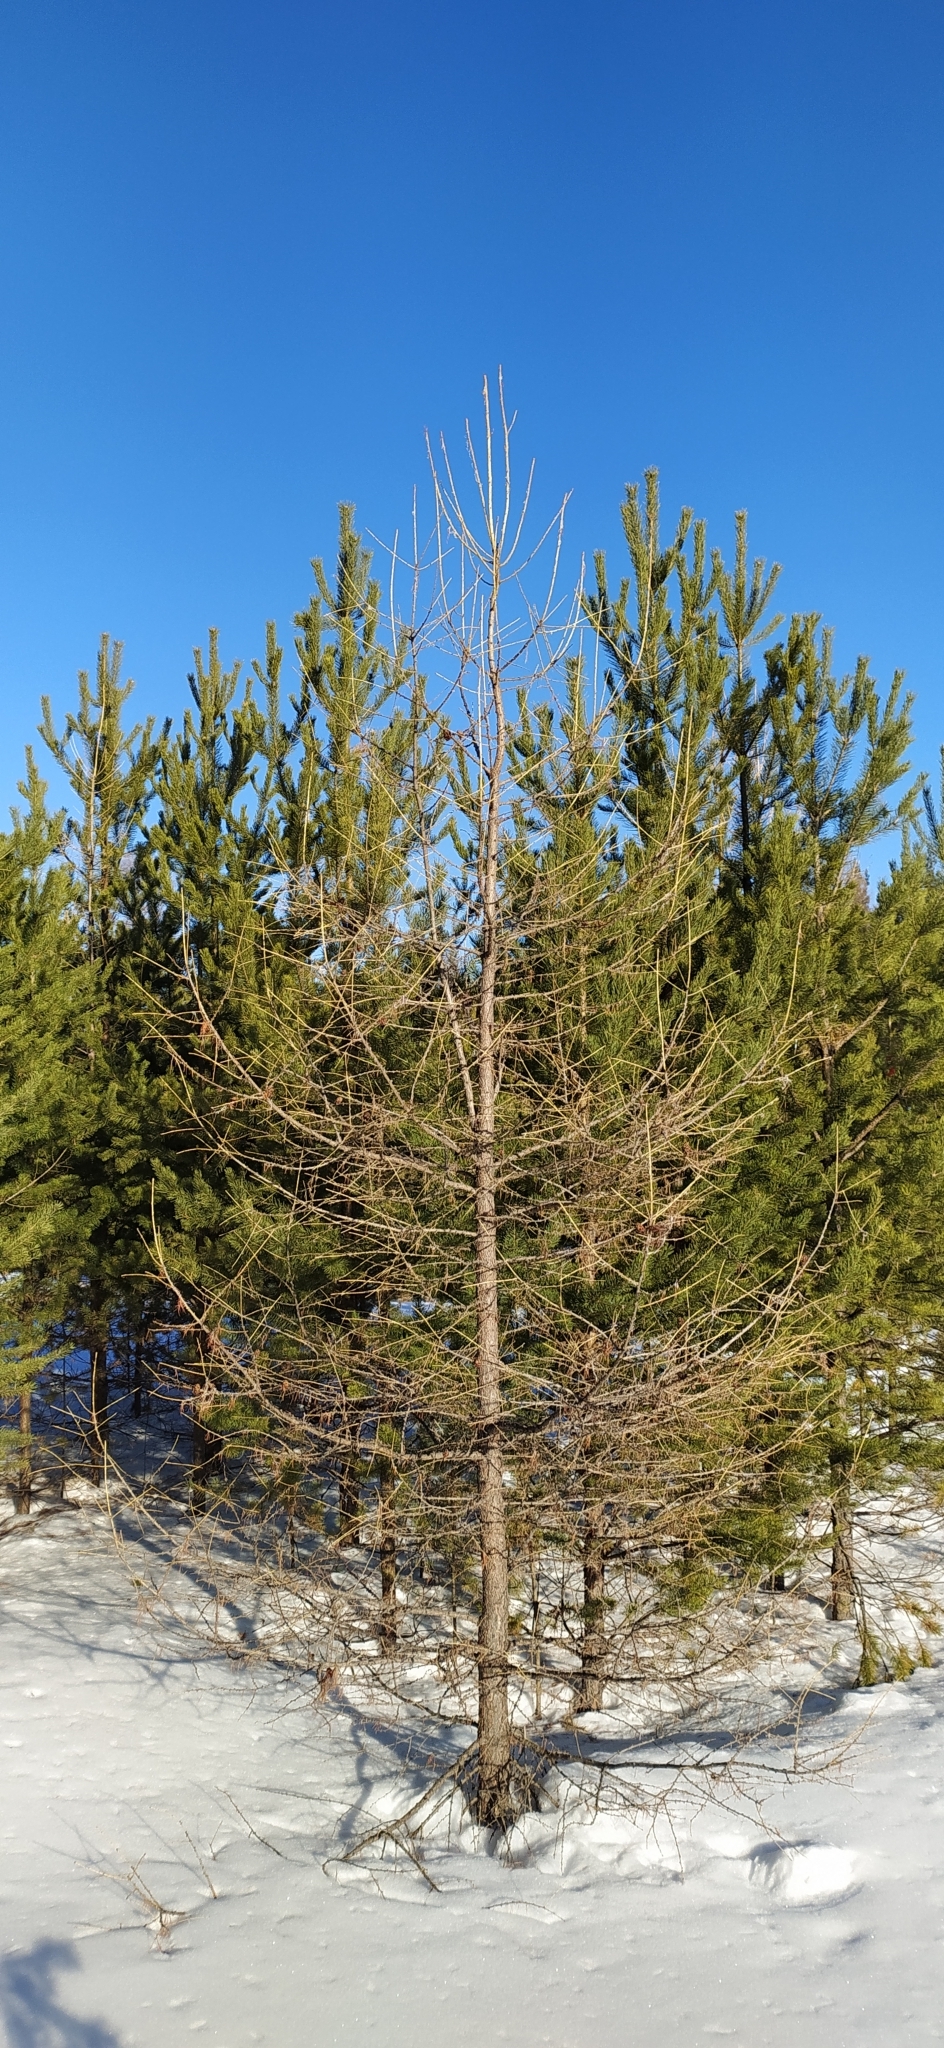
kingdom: Plantae
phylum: Tracheophyta
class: Pinopsida
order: Pinales
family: Pinaceae
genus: Larix
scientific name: Larix sibirica
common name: Siberian larch
